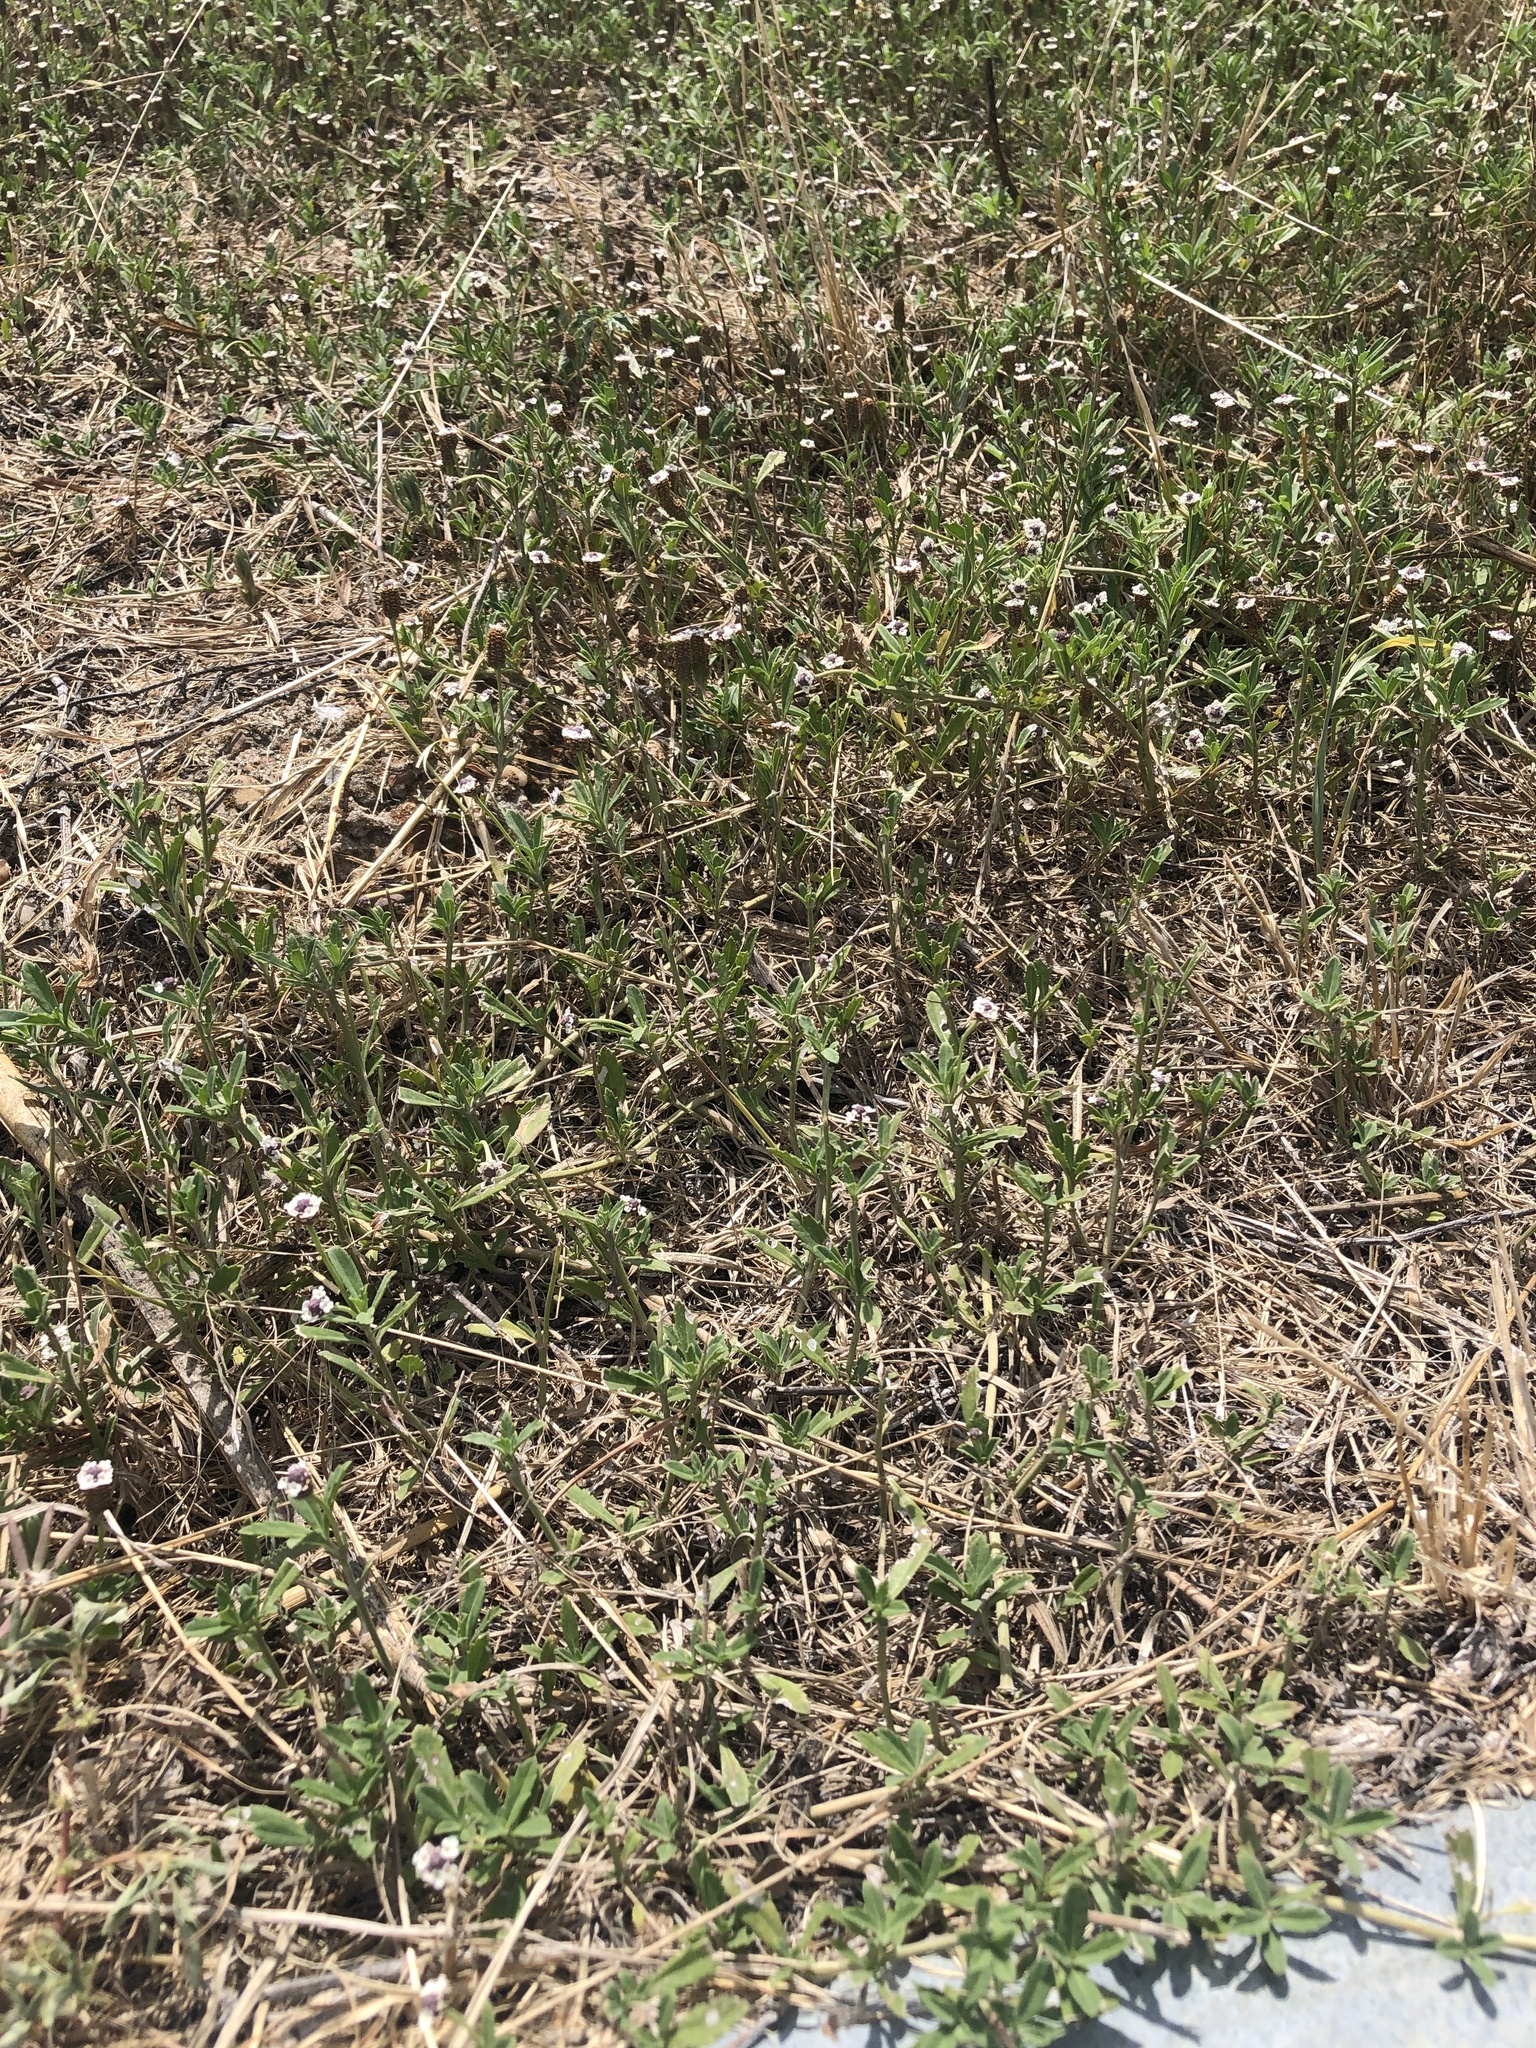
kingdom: Plantae
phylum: Tracheophyta
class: Magnoliopsida
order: Lamiales
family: Verbenaceae
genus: Phyla
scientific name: Phyla nodiflora
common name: Frogfruit
